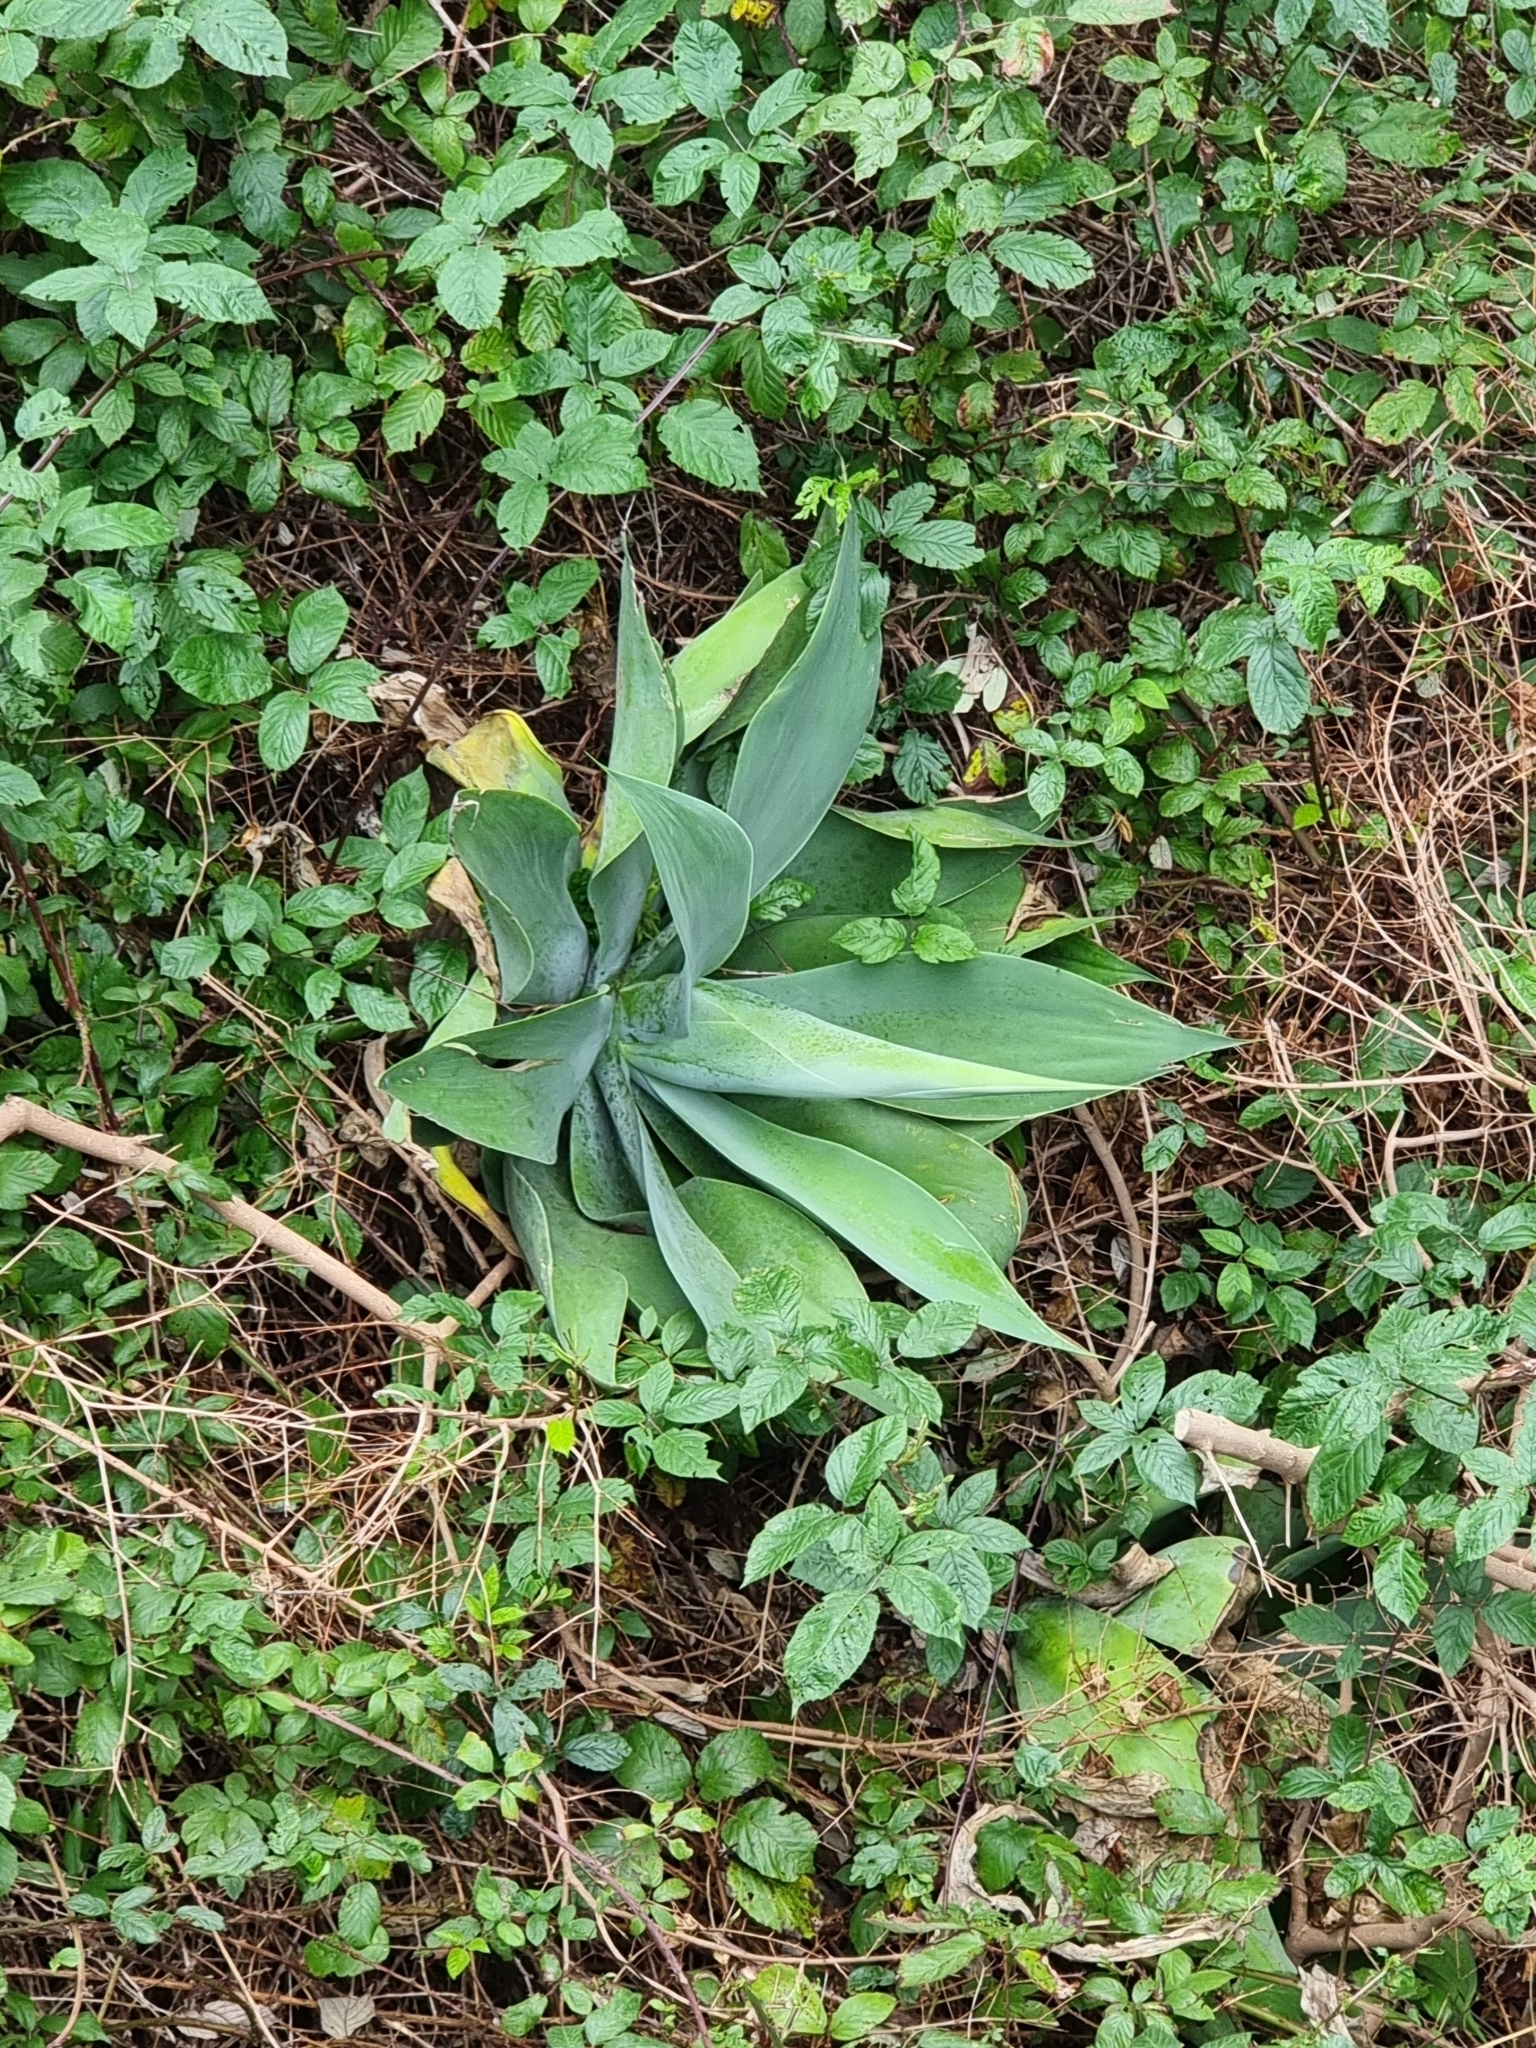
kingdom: Plantae
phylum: Tracheophyta
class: Liliopsida
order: Asparagales
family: Asparagaceae
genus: Agave
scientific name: Agave attenuata
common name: Fox tail agave
